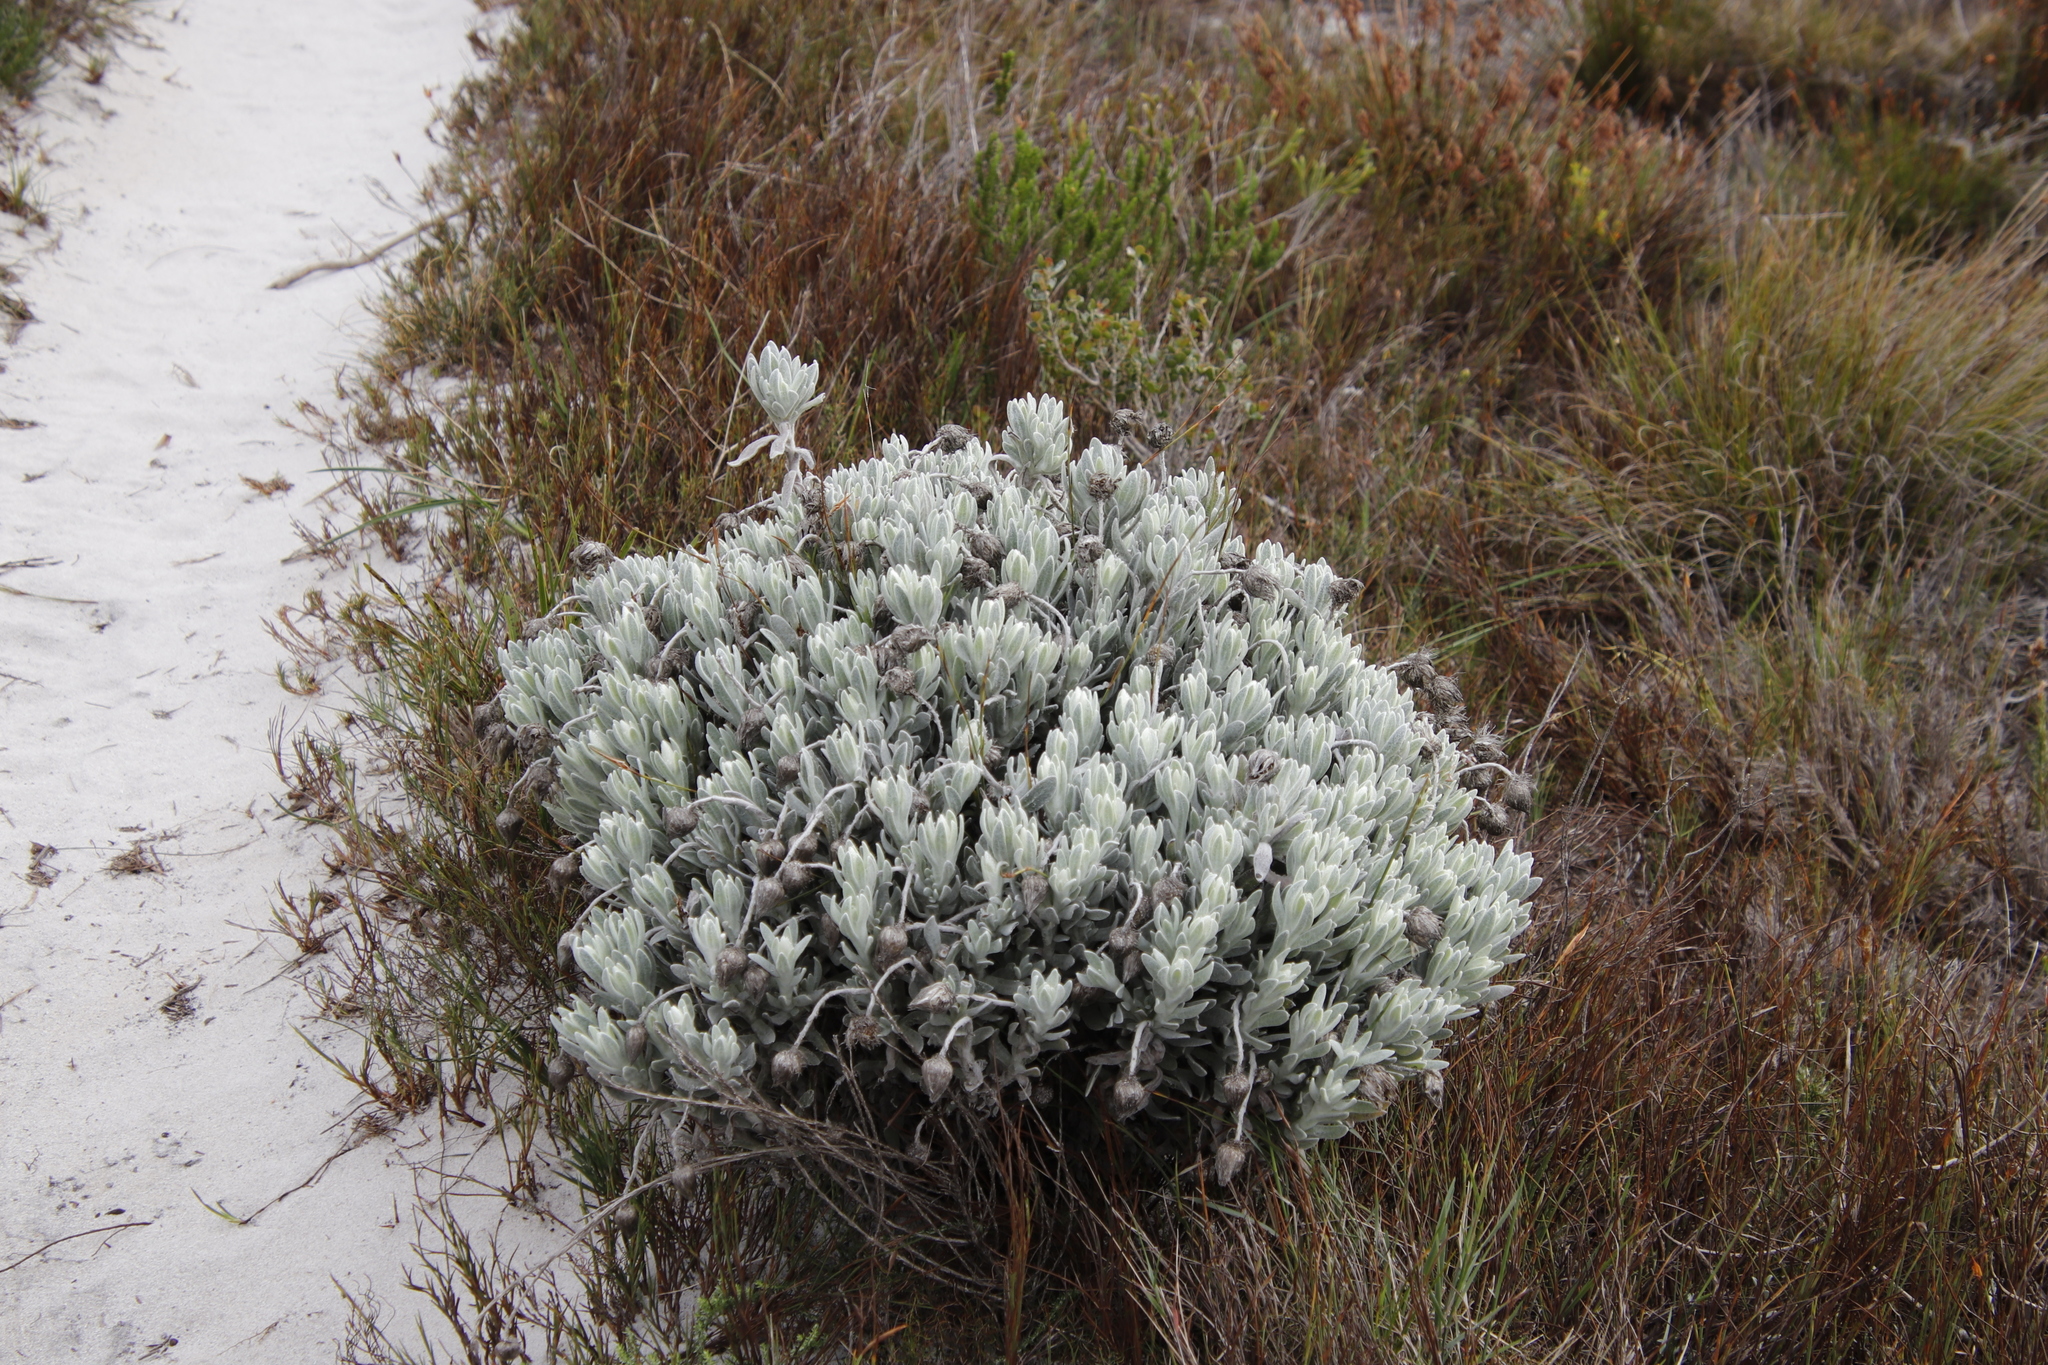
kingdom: Plantae
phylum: Tracheophyta
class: Magnoliopsida
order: Asterales
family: Asteraceae
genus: Syncarpha
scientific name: Syncarpha vestita
